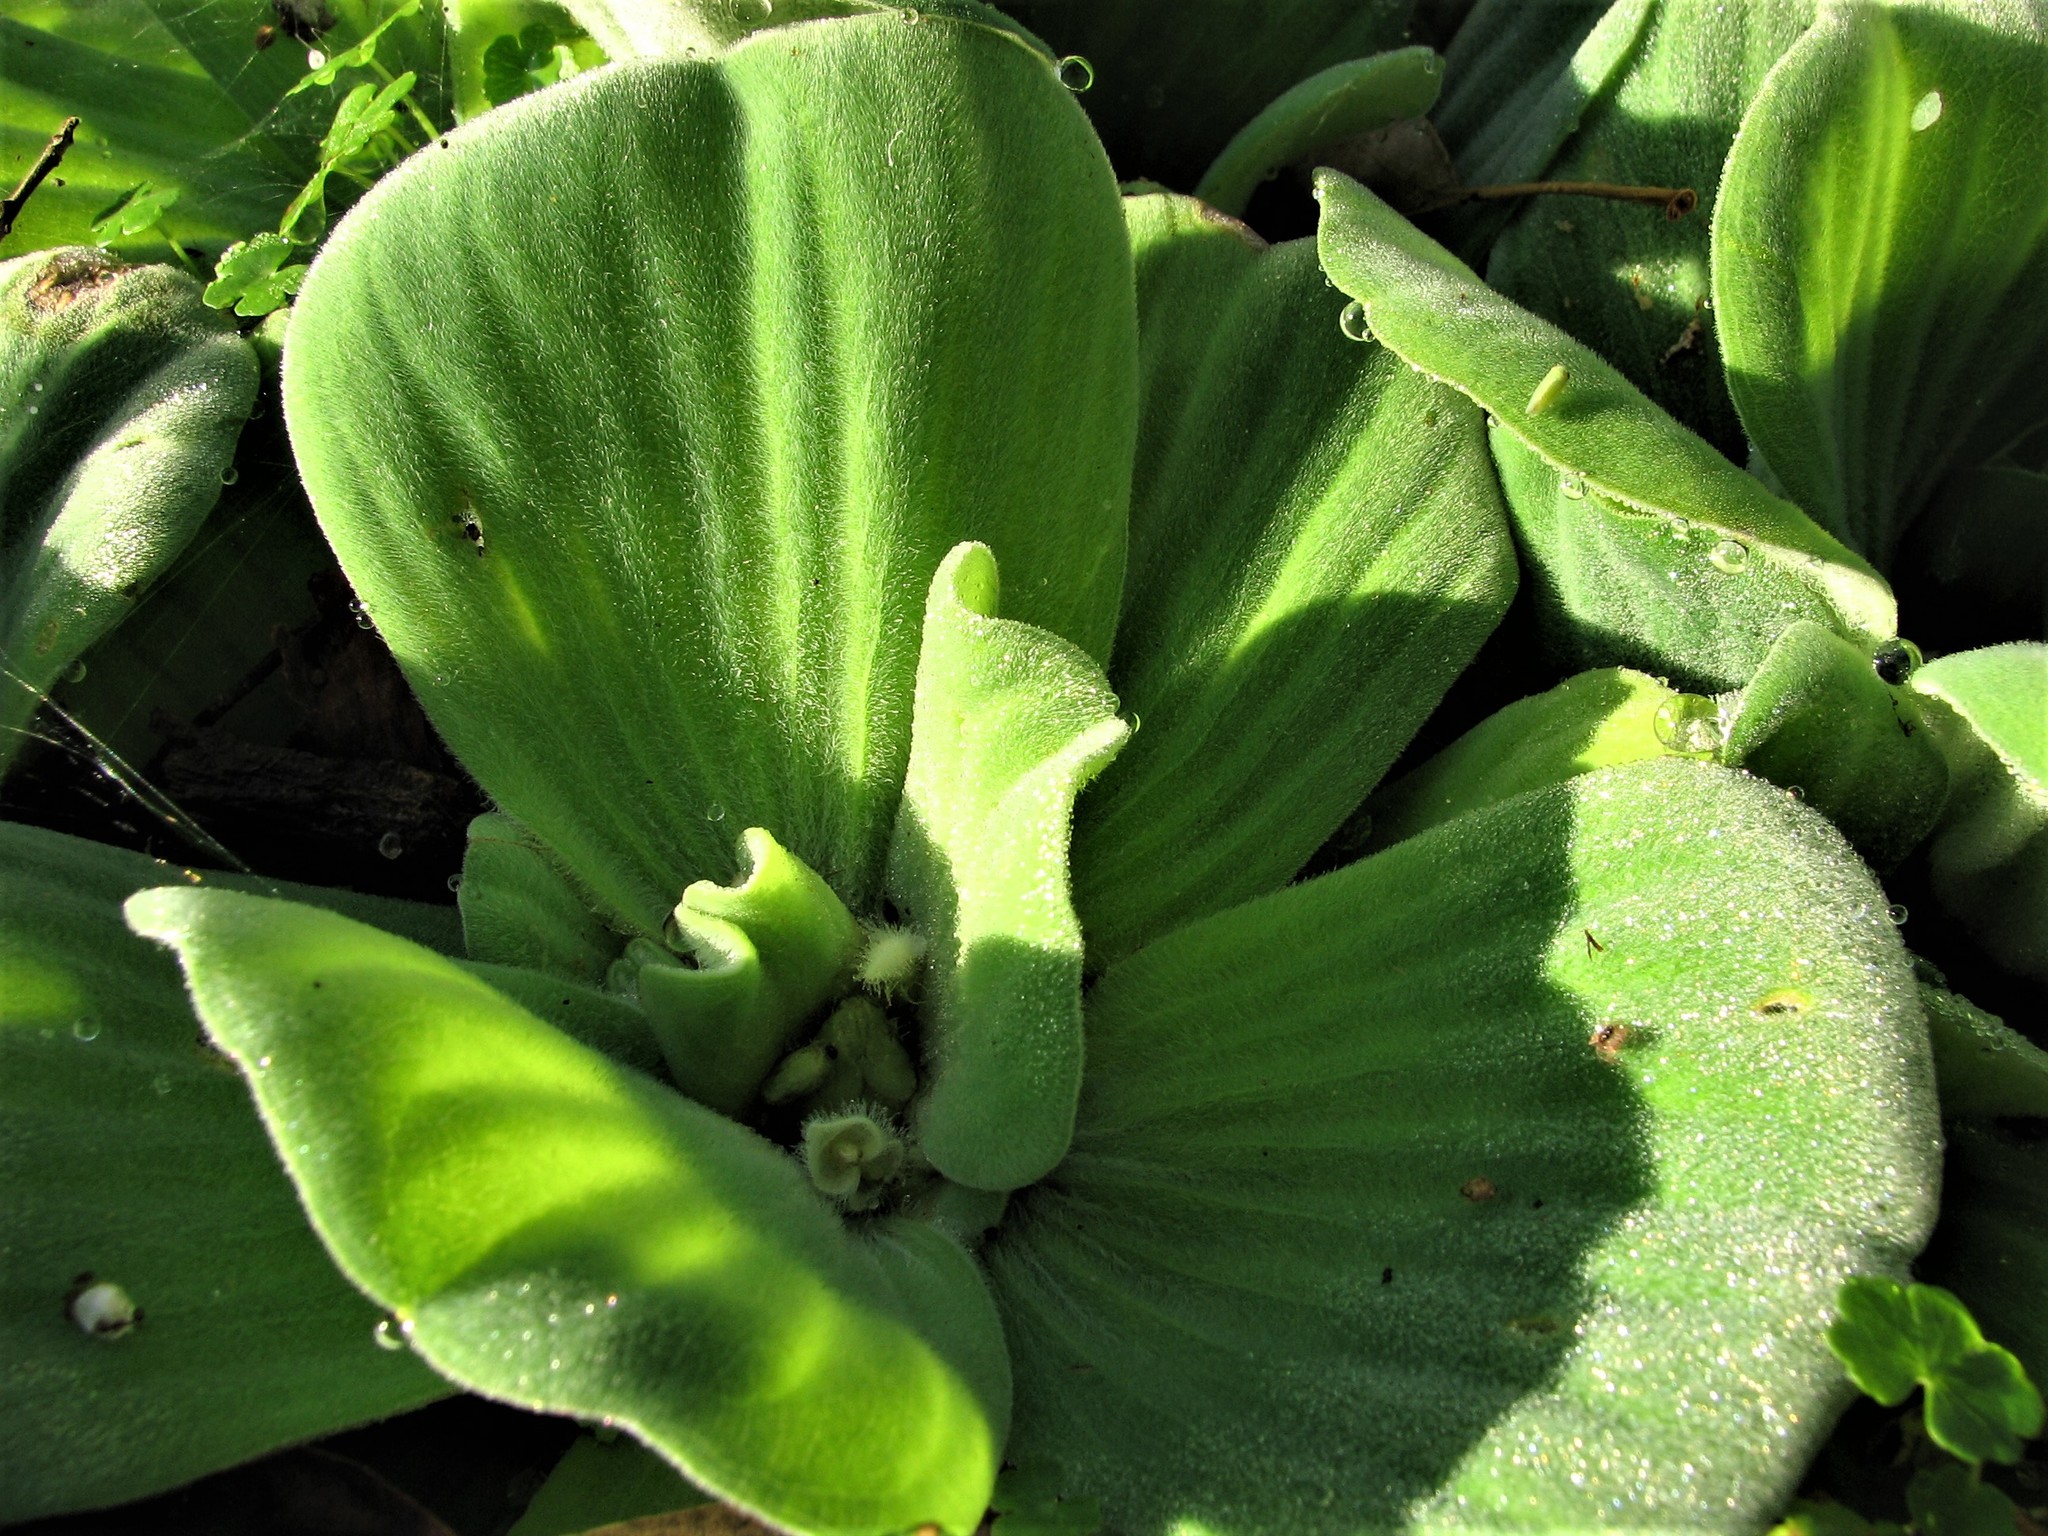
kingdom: Plantae
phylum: Tracheophyta
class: Liliopsida
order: Alismatales
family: Araceae
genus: Pistia
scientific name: Pistia stratiotes
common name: Water lettuce
